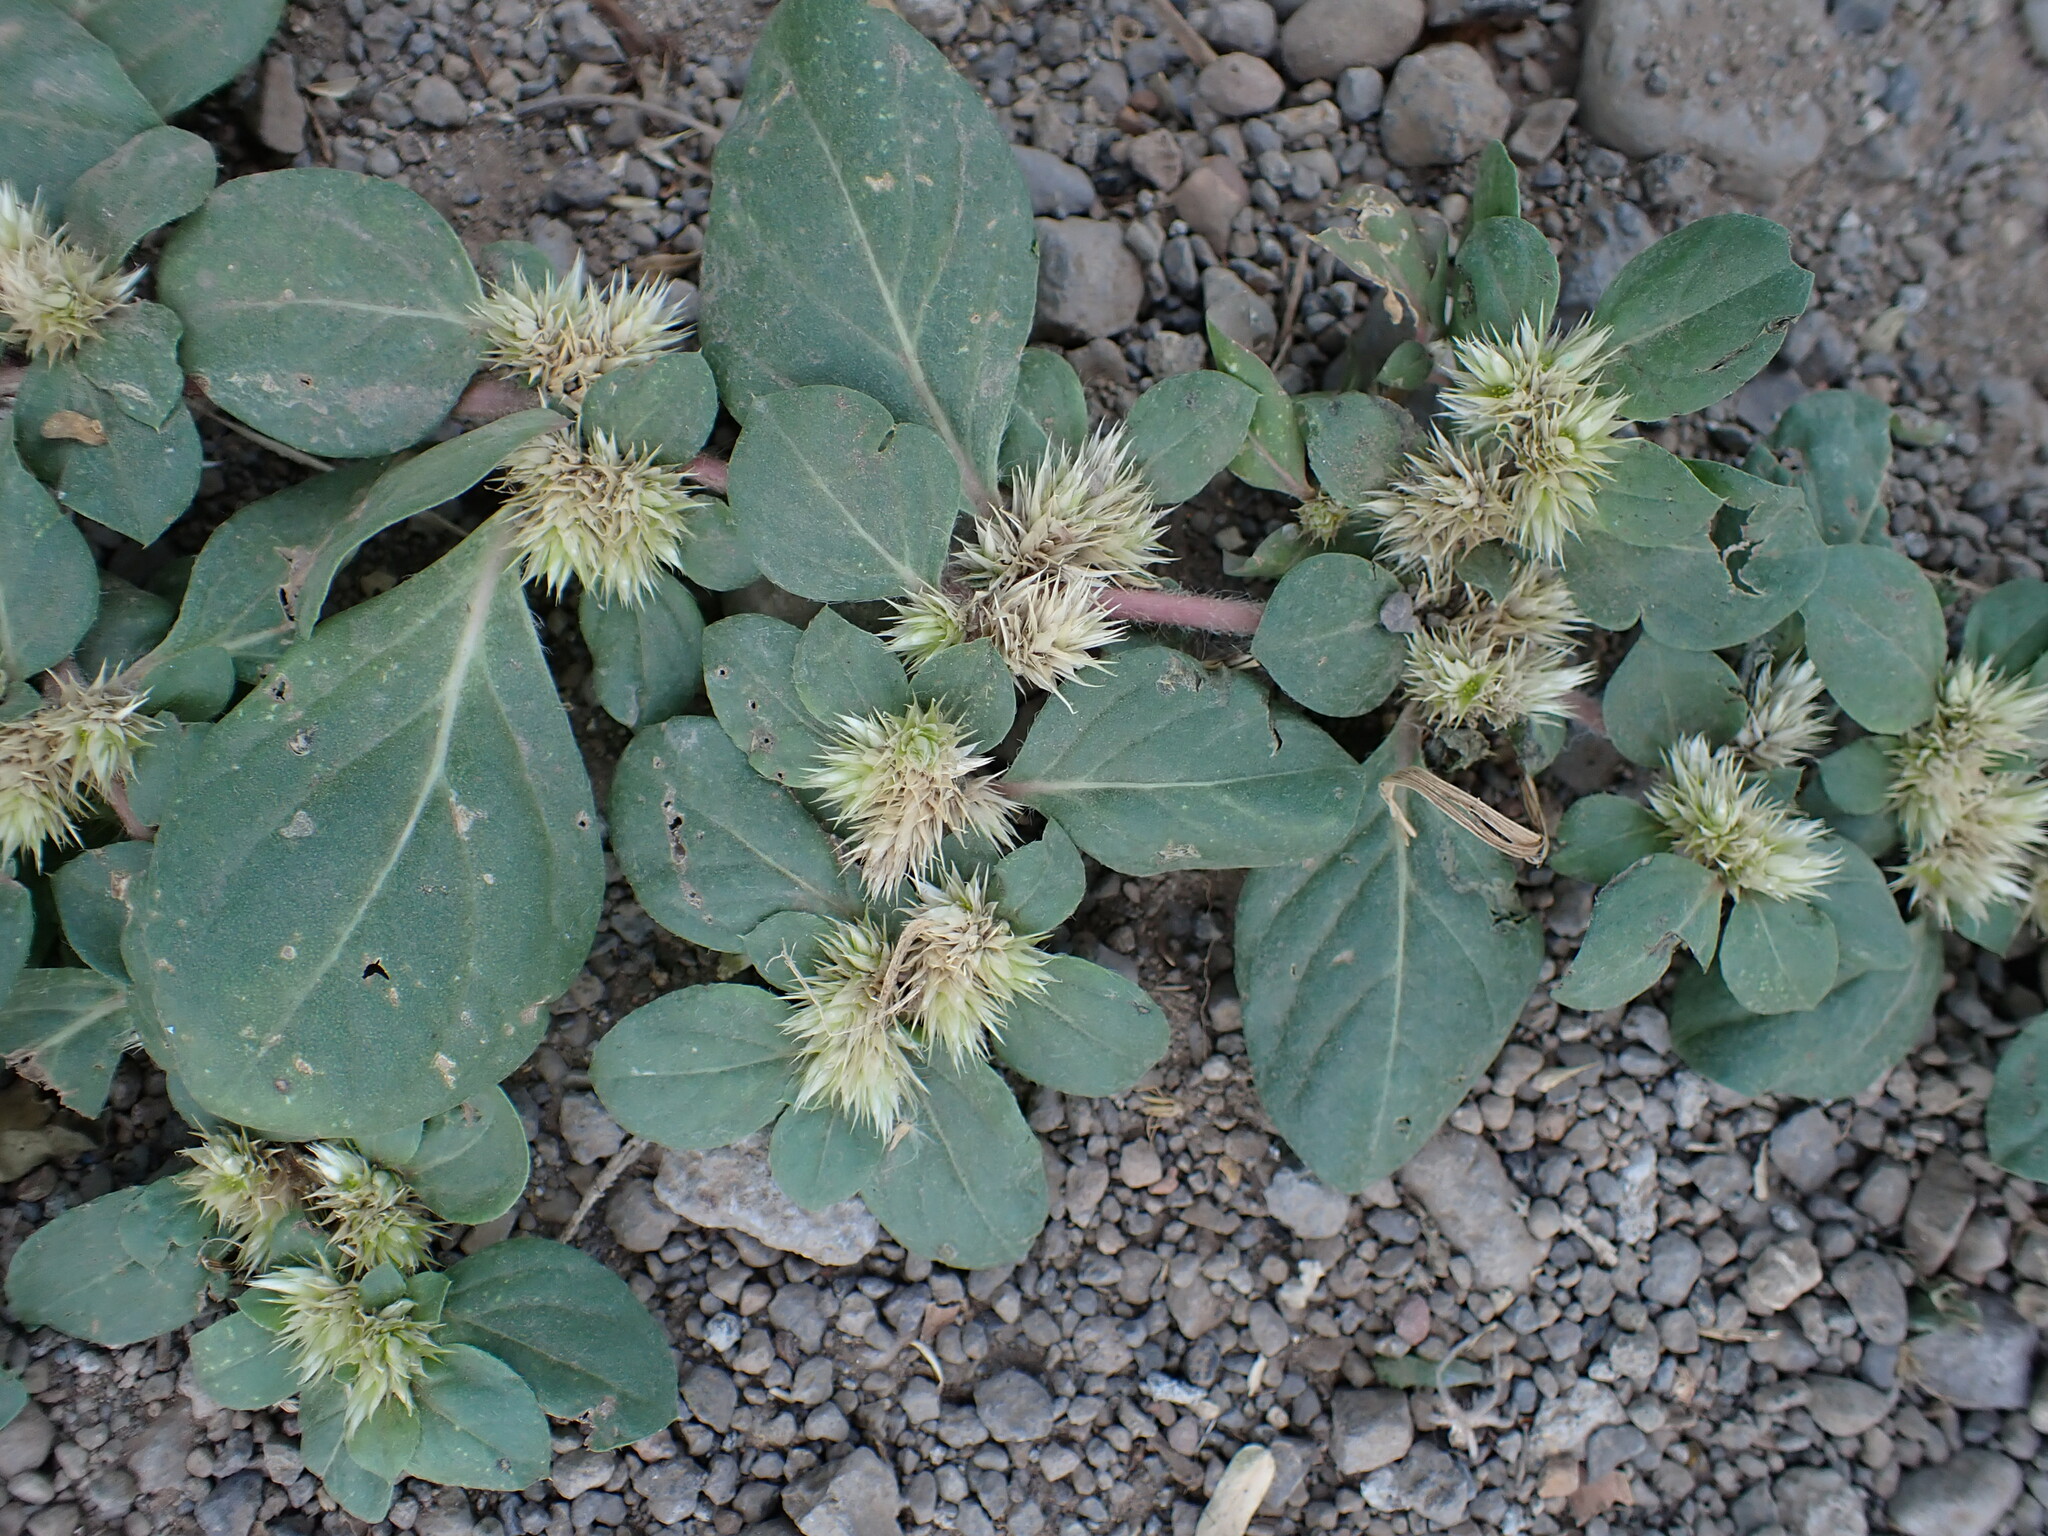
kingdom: Plantae
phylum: Tracheophyta
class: Magnoliopsida
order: Caryophyllales
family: Amaranthaceae
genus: Alternanthera
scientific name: Alternanthera pungens
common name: Khakiweed
